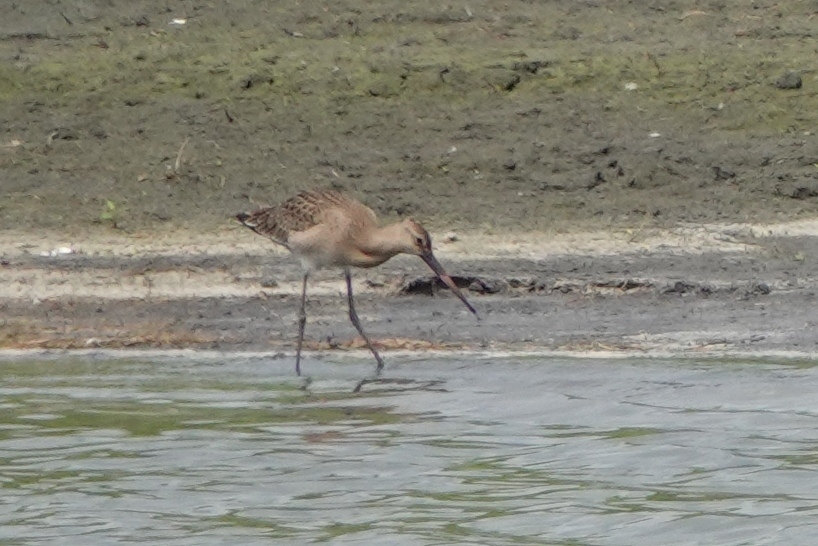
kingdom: Animalia
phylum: Chordata
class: Aves
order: Charadriiformes
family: Scolopacidae
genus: Limosa
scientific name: Limosa limosa
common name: Black-tailed godwit
